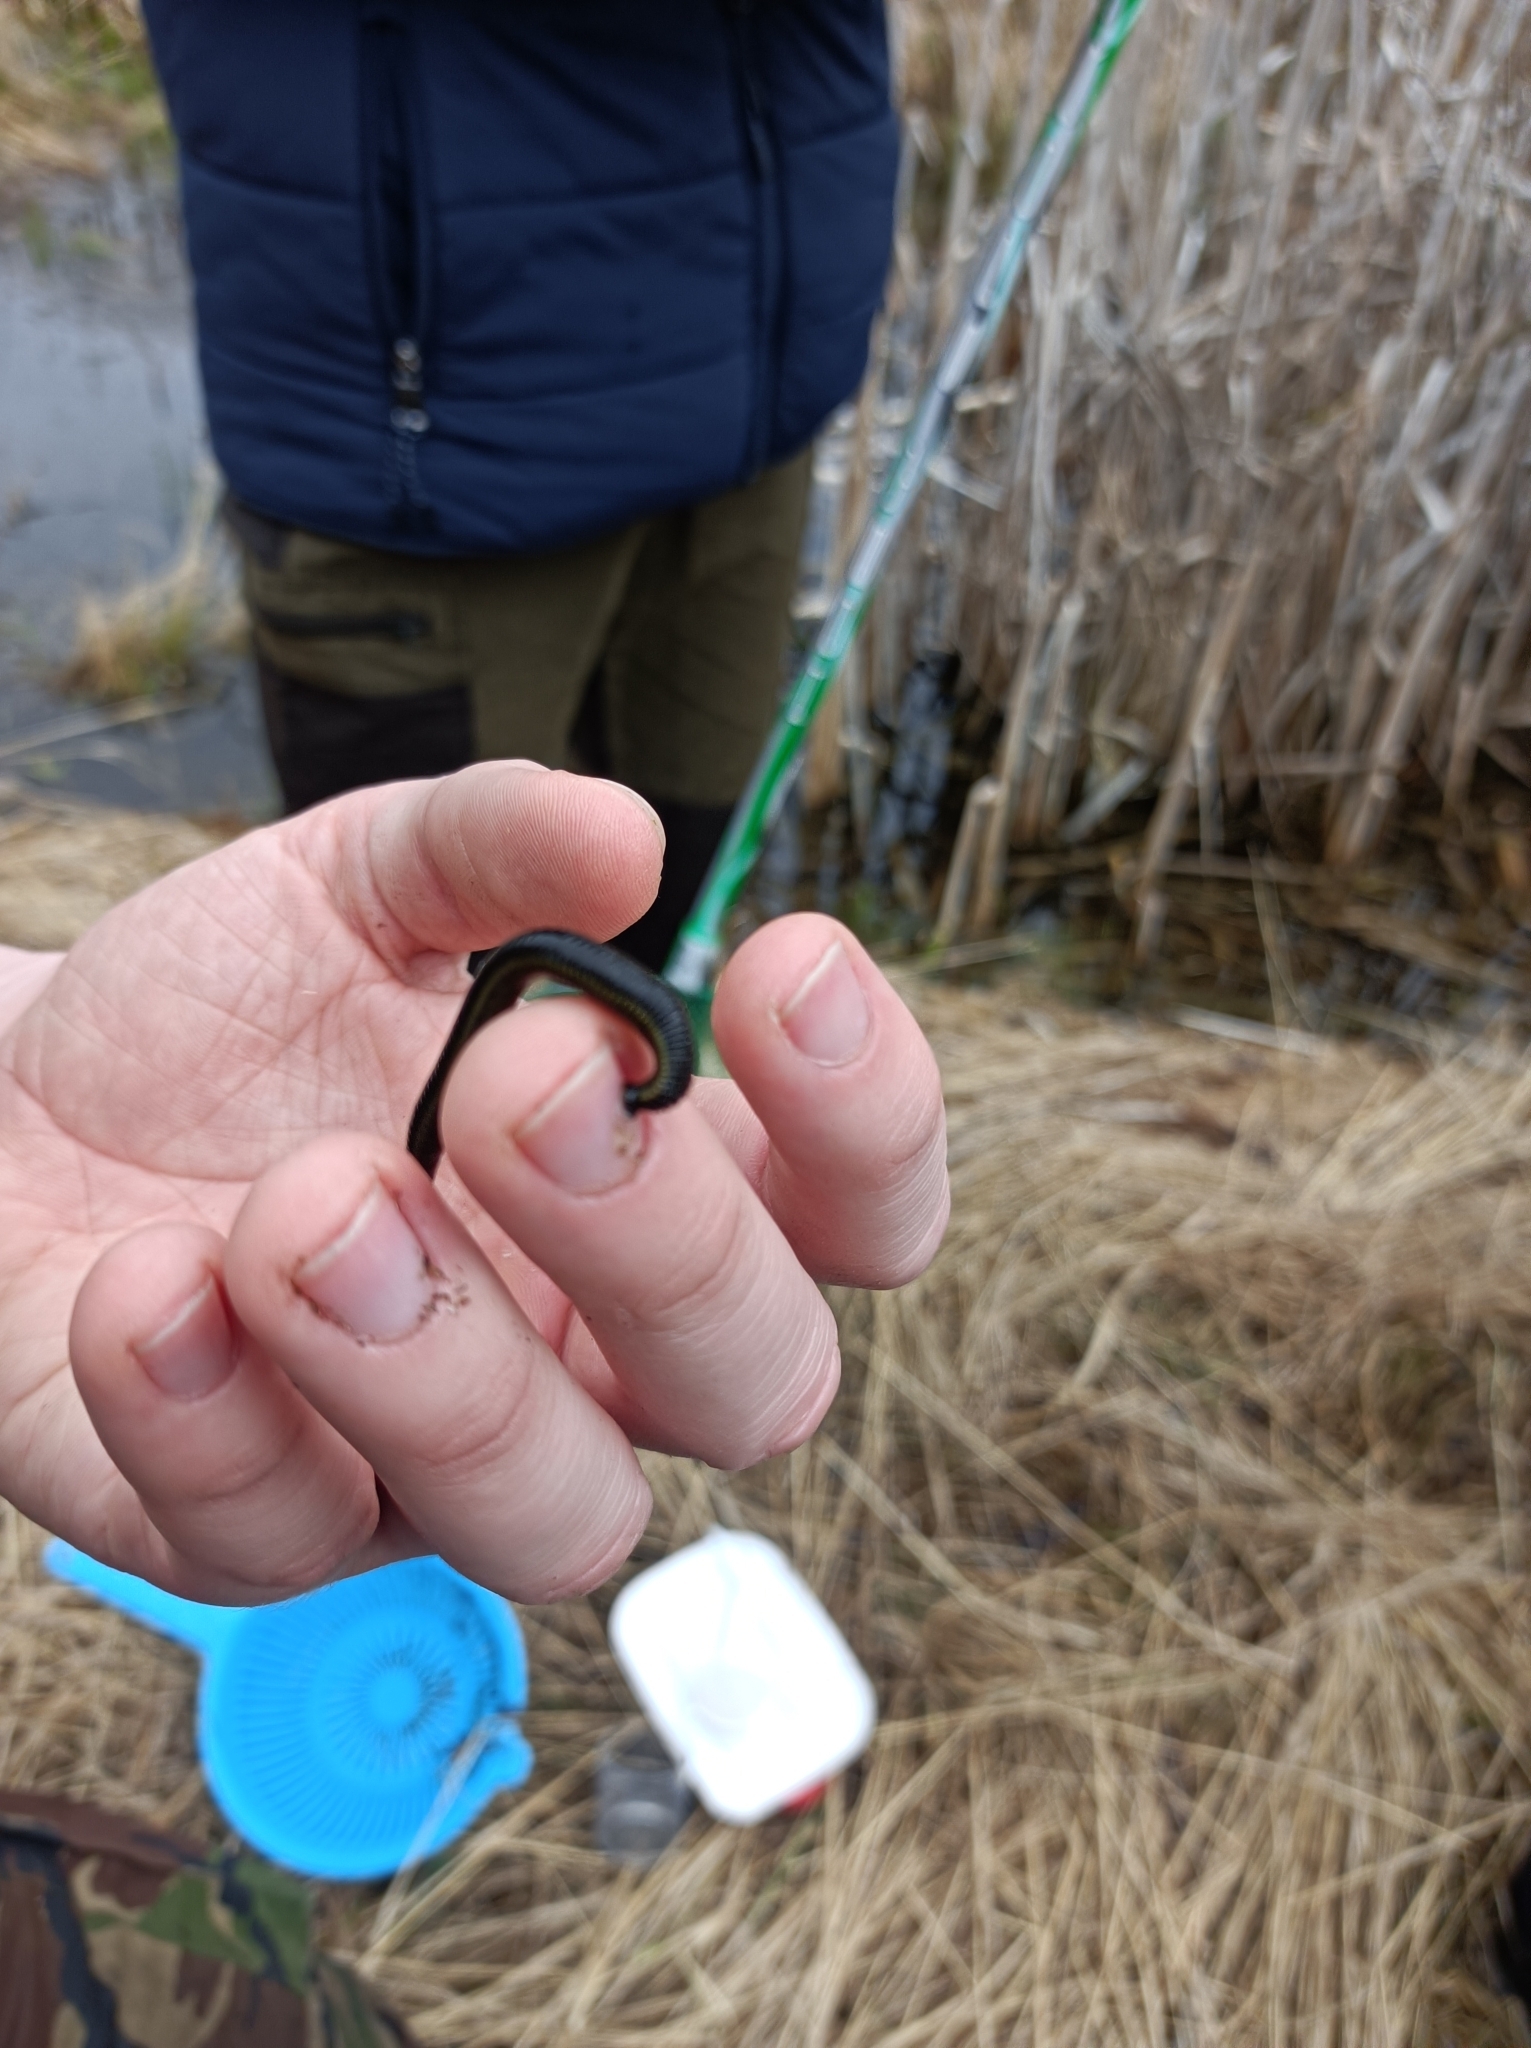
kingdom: Animalia
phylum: Annelida
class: Clitellata
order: Arhynchobdellida
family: Haemopidae
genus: Haemopis
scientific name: Haemopis sanguisuga
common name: Horse leech
